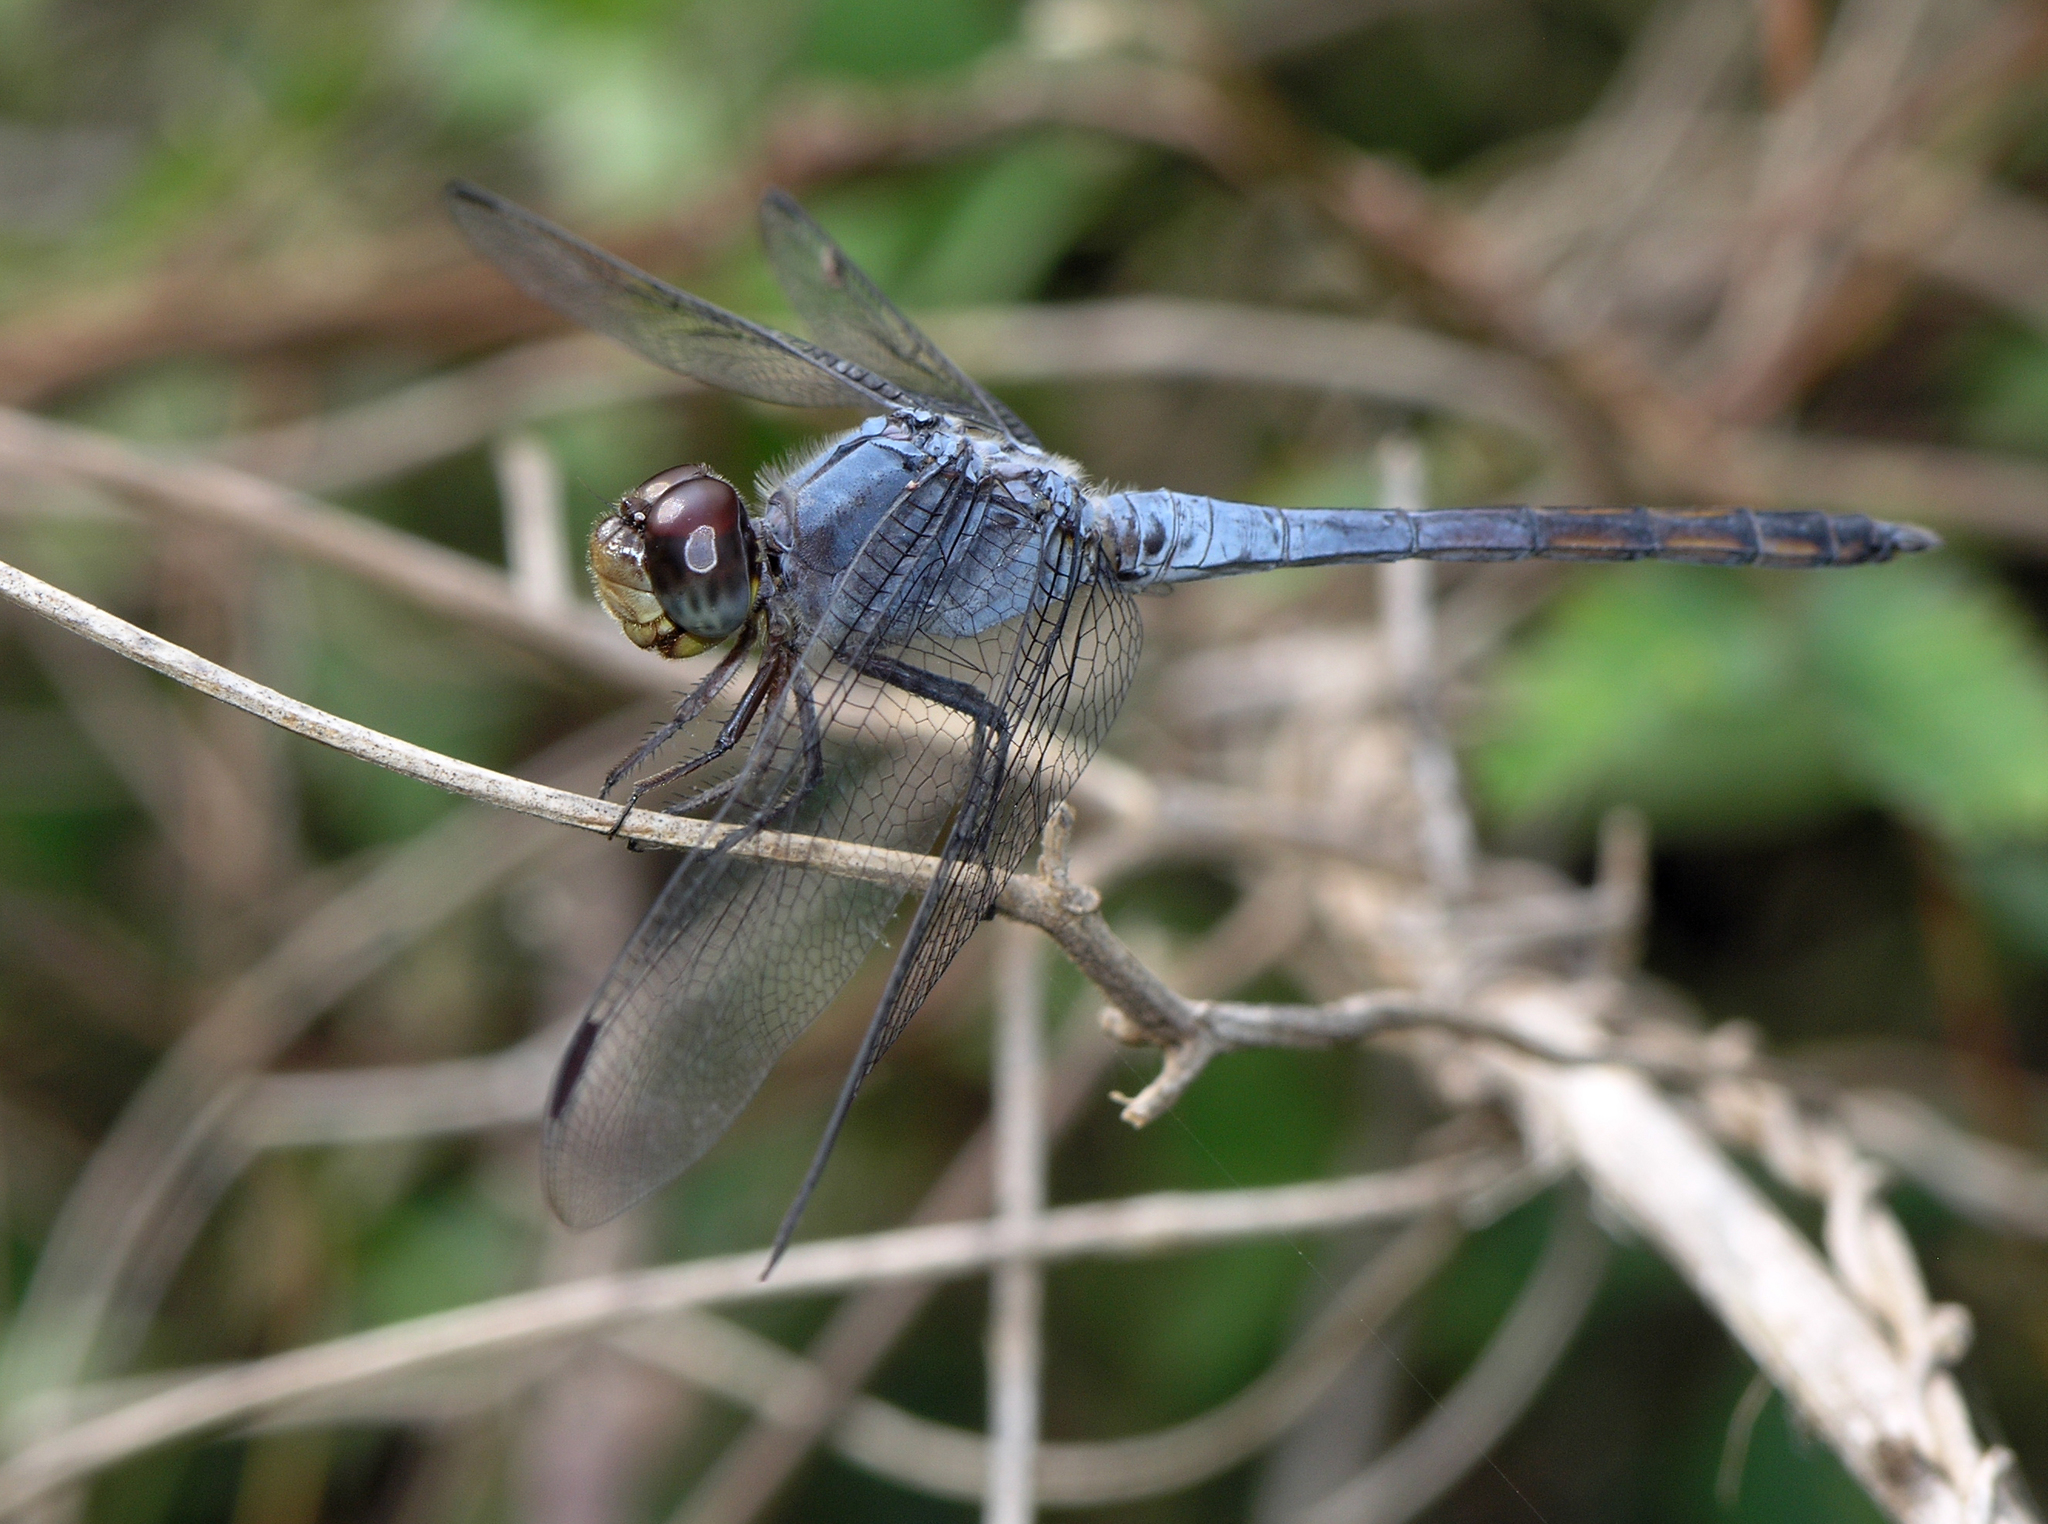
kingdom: Animalia
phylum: Arthropoda
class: Insecta
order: Odonata
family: Libellulidae
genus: Potamarcha
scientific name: Potamarcha congener
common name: Blue chaser
